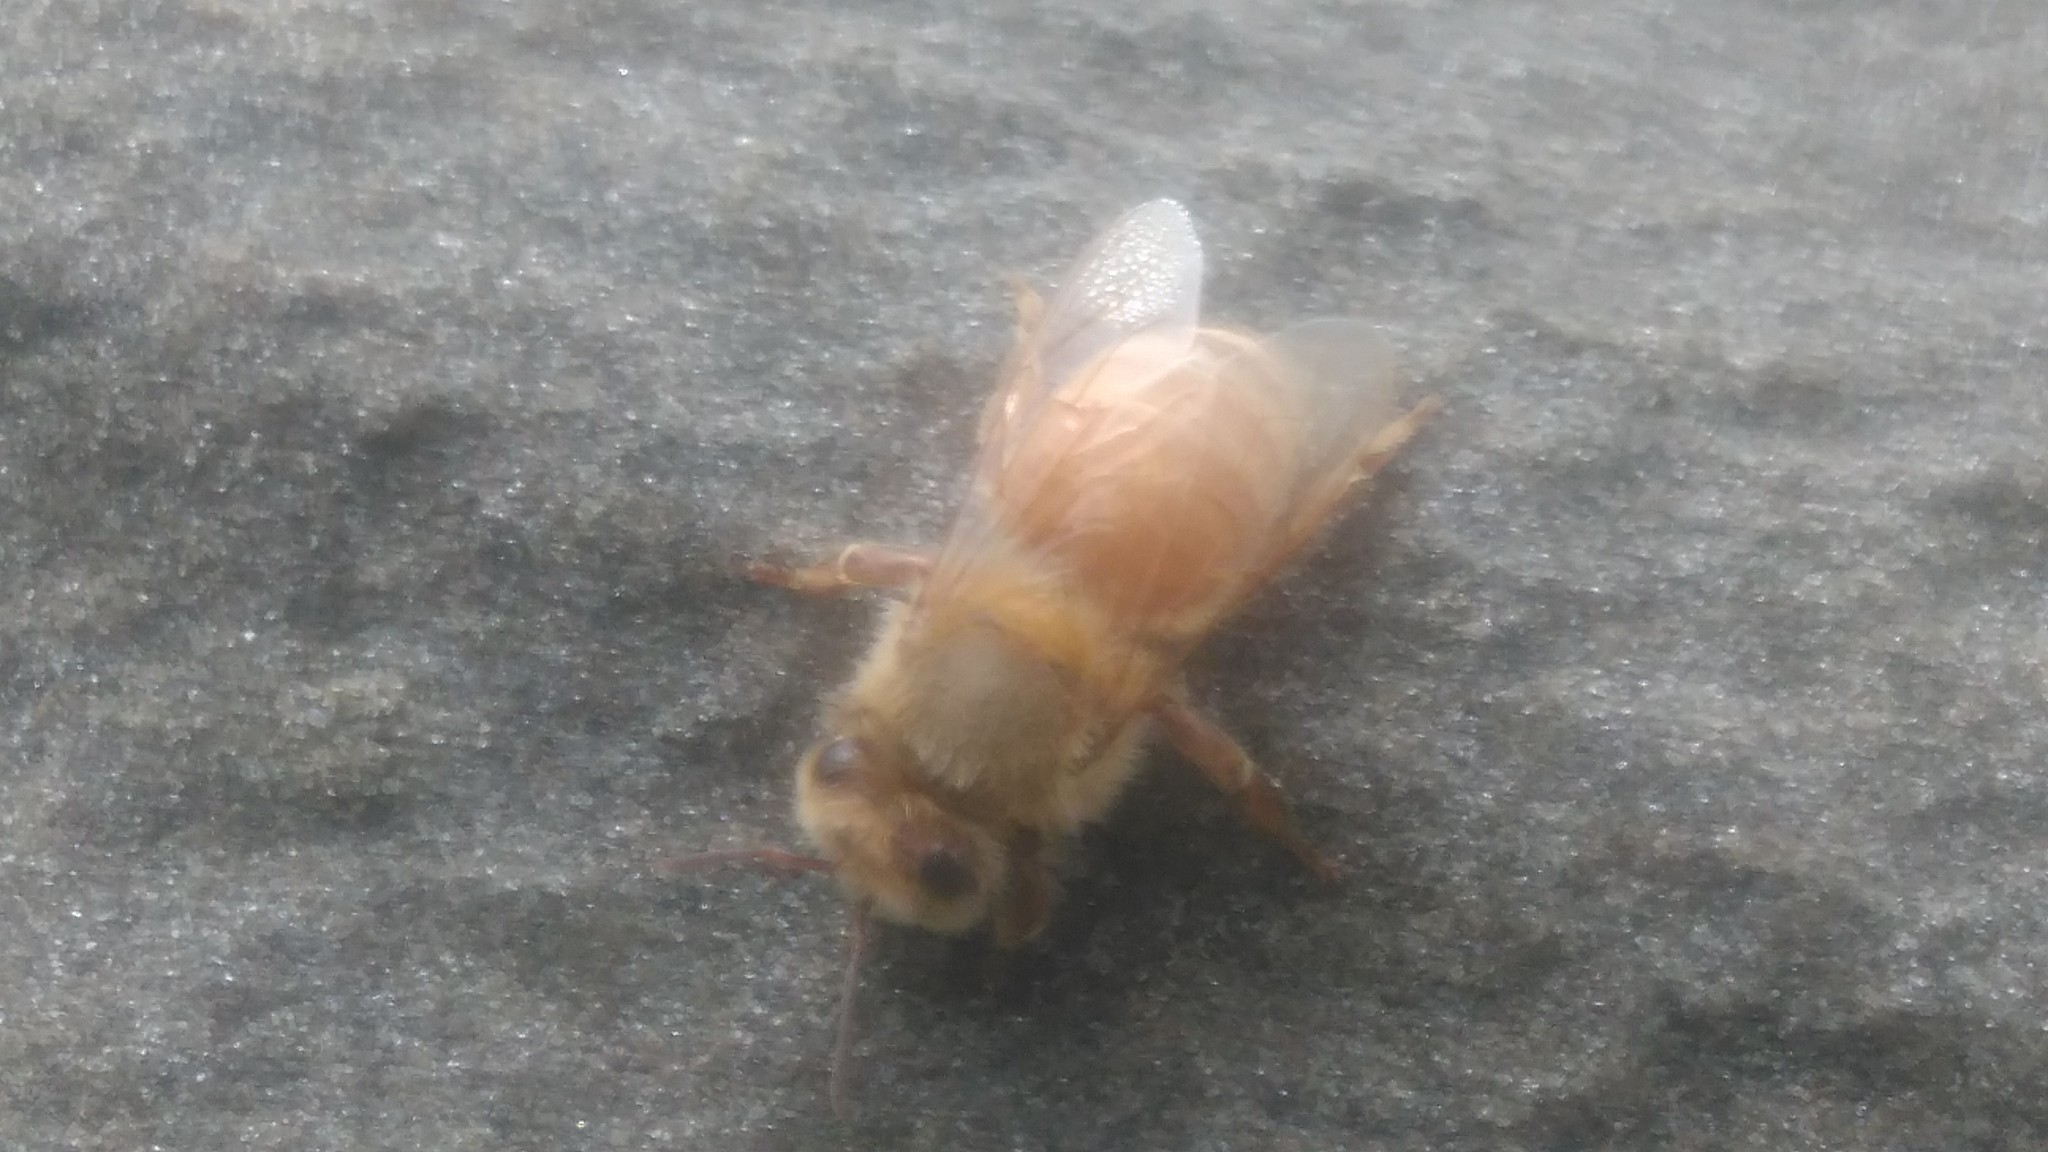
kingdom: Animalia
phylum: Arthropoda
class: Insecta
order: Hymenoptera
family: Apidae
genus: Apis
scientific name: Apis mellifera
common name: Honey bee
